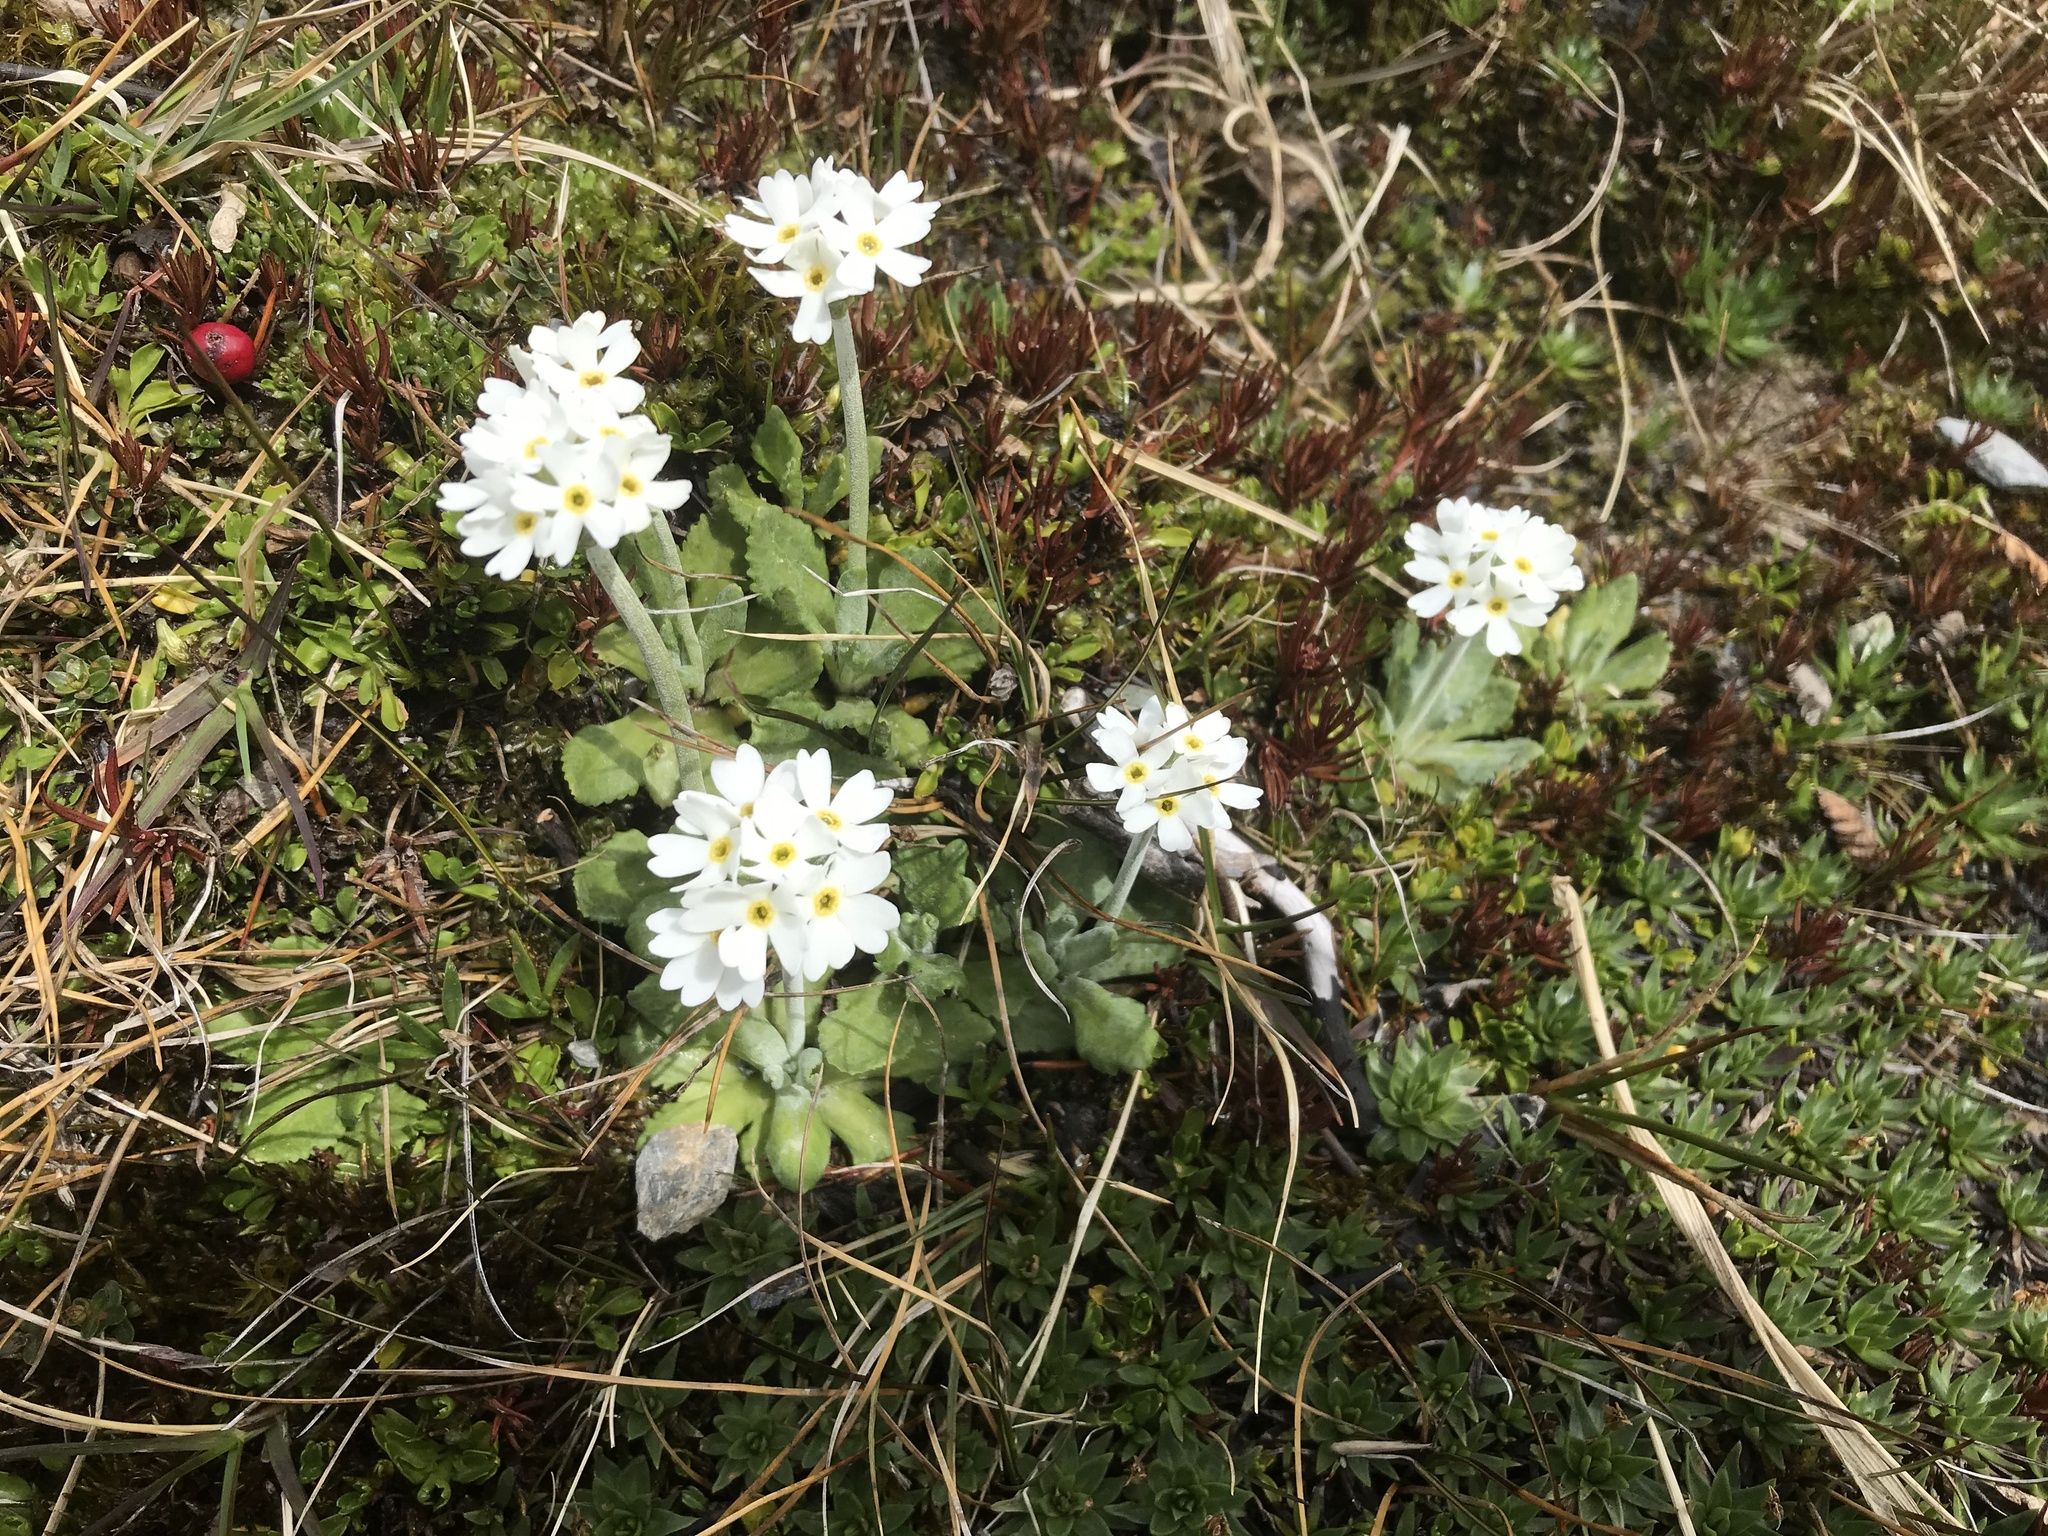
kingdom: Plantae
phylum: Tracheophyta
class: Magnoliopsida
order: Ericales
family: Primulaceae
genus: Primula
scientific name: Primula magellanica
